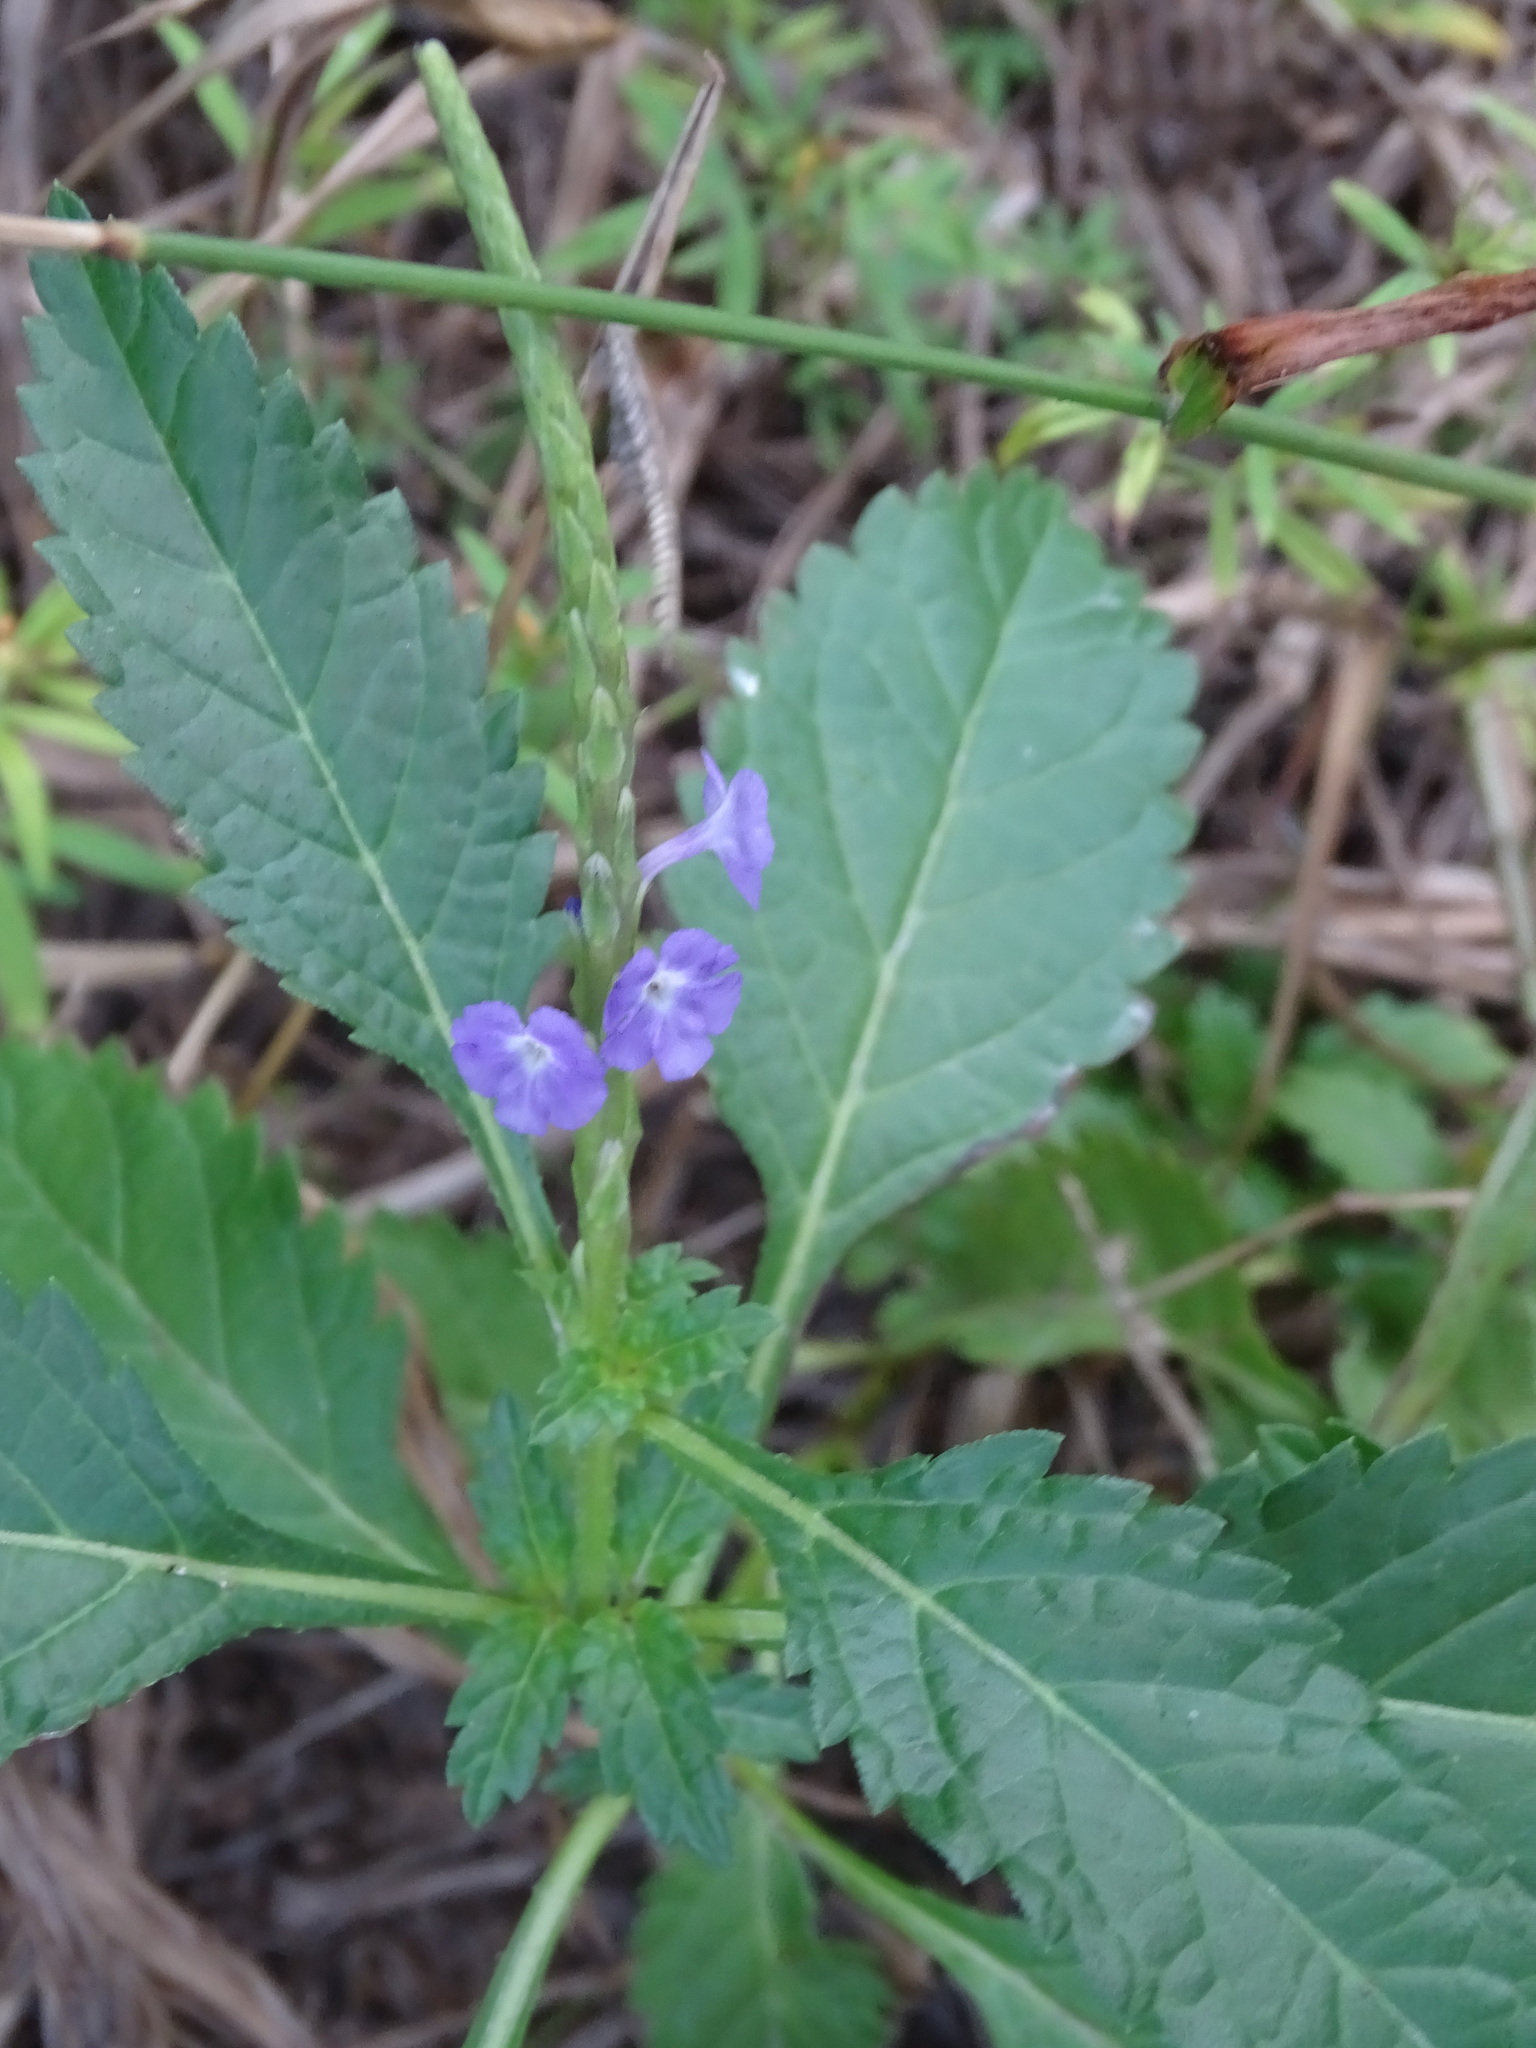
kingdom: Plantae
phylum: Tracheophyta
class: Magnoliopsida
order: Lamiales
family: Verbenaceae
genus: Stachytarpheta
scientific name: Stachytarpheta jamaicensis
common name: Light-blue snakeweed
